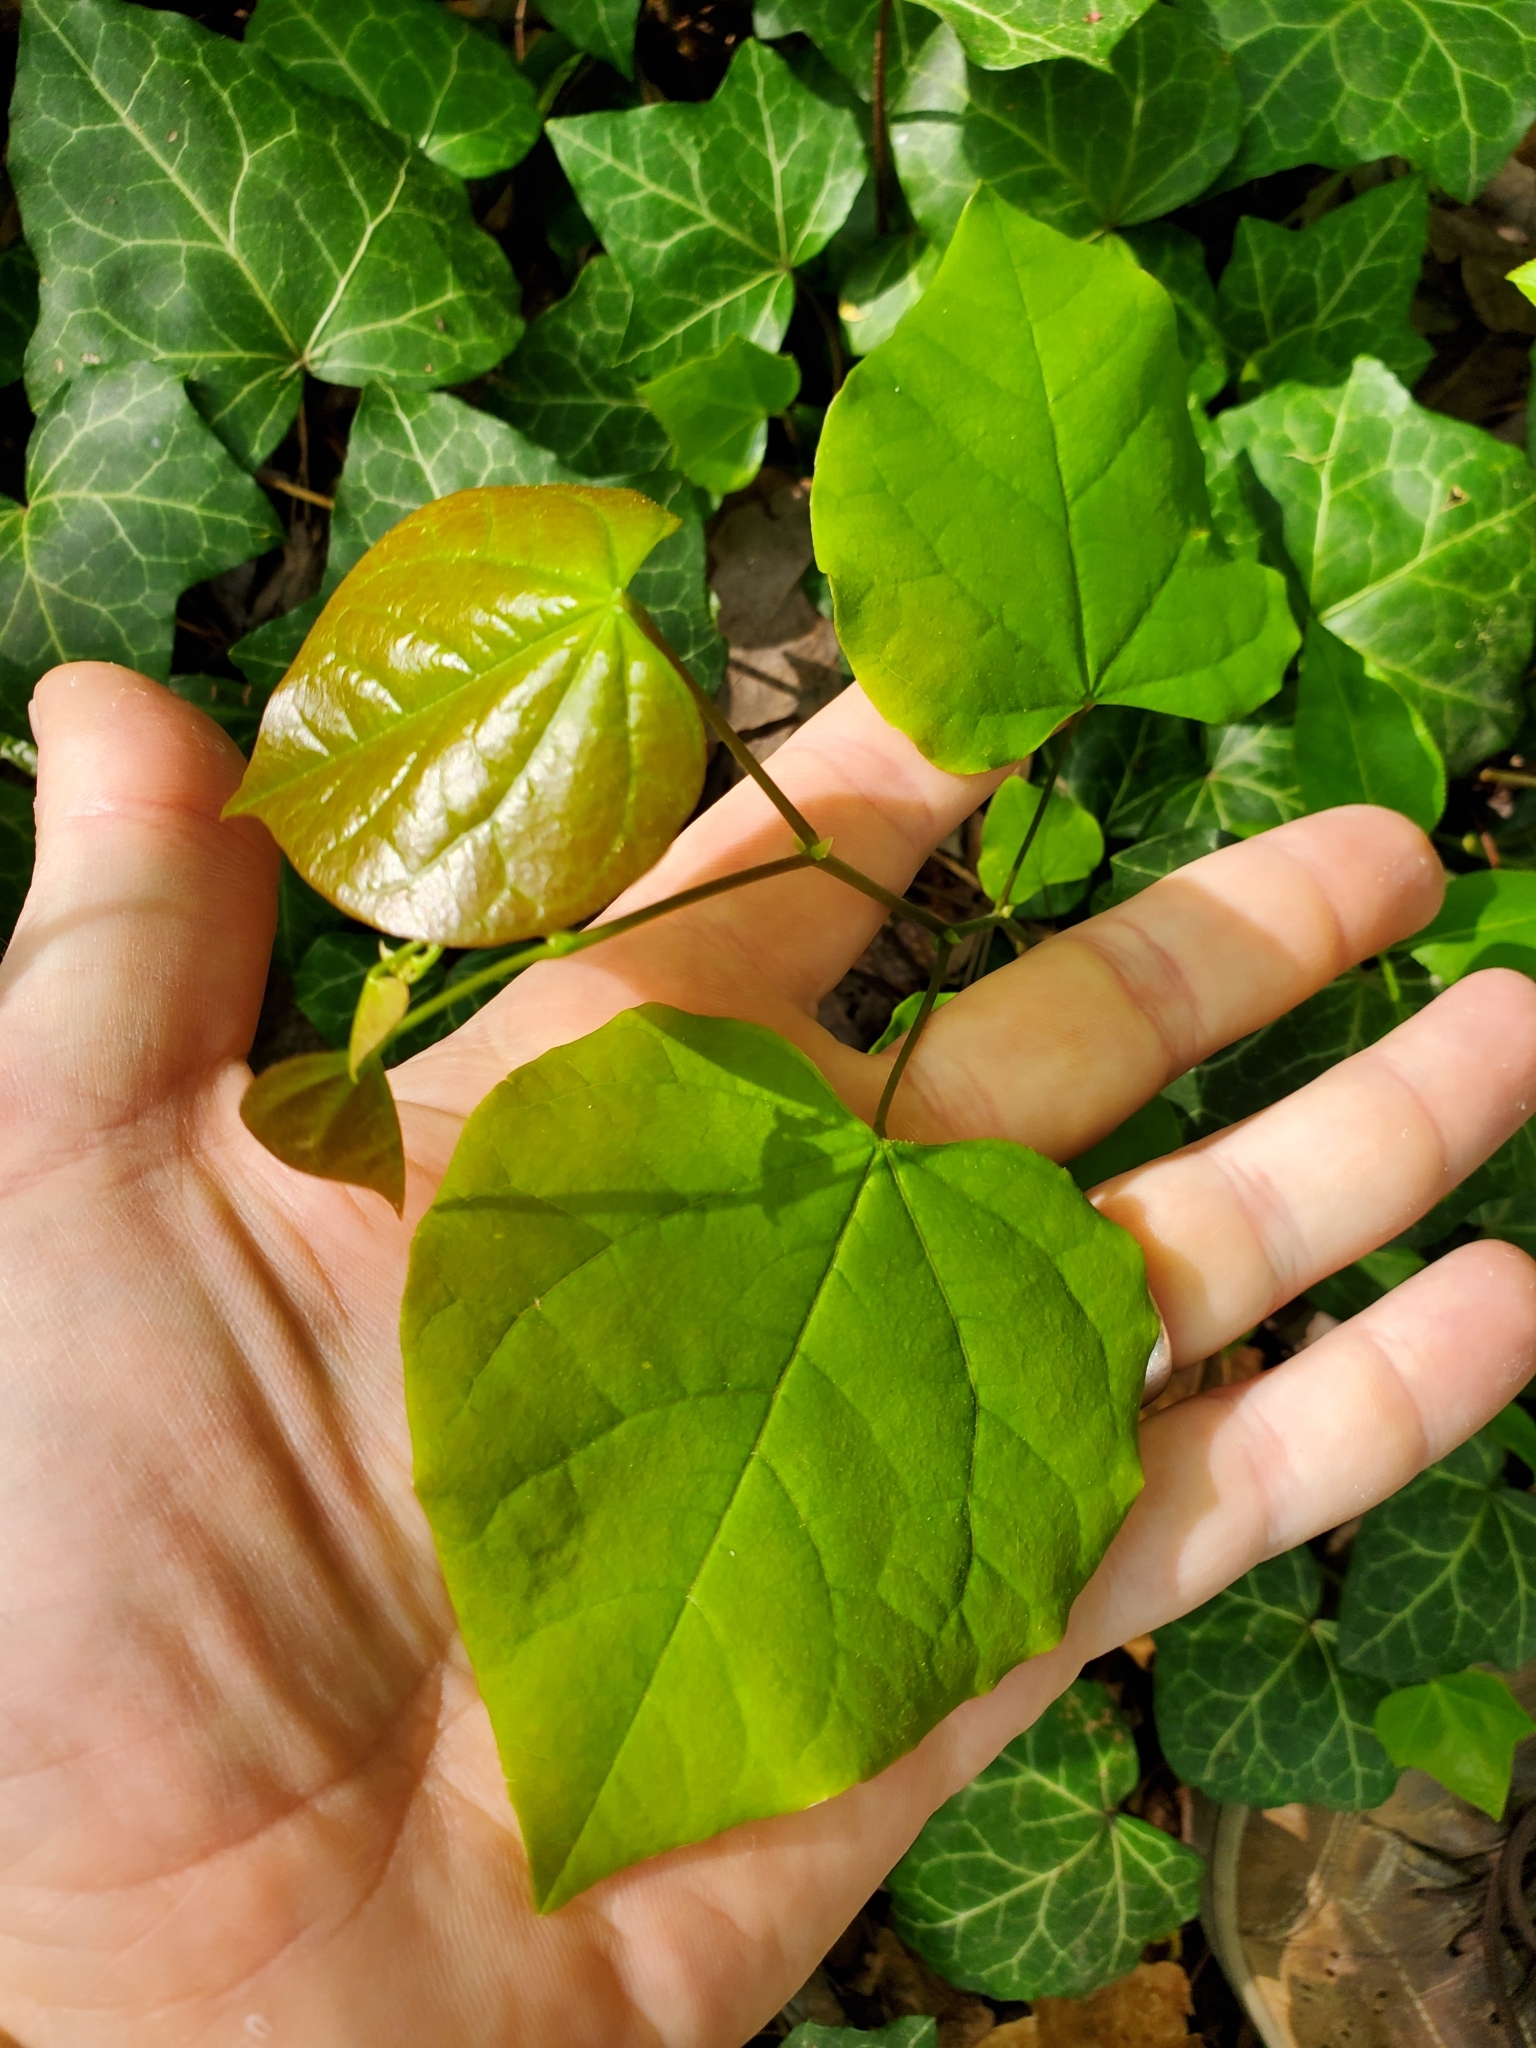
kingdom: Plantae
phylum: Tracheophyta
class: Magnoliopsida
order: Fabales
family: Fabaceae
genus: Cercis
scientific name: Cercis canadensis
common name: Eastern redbud
